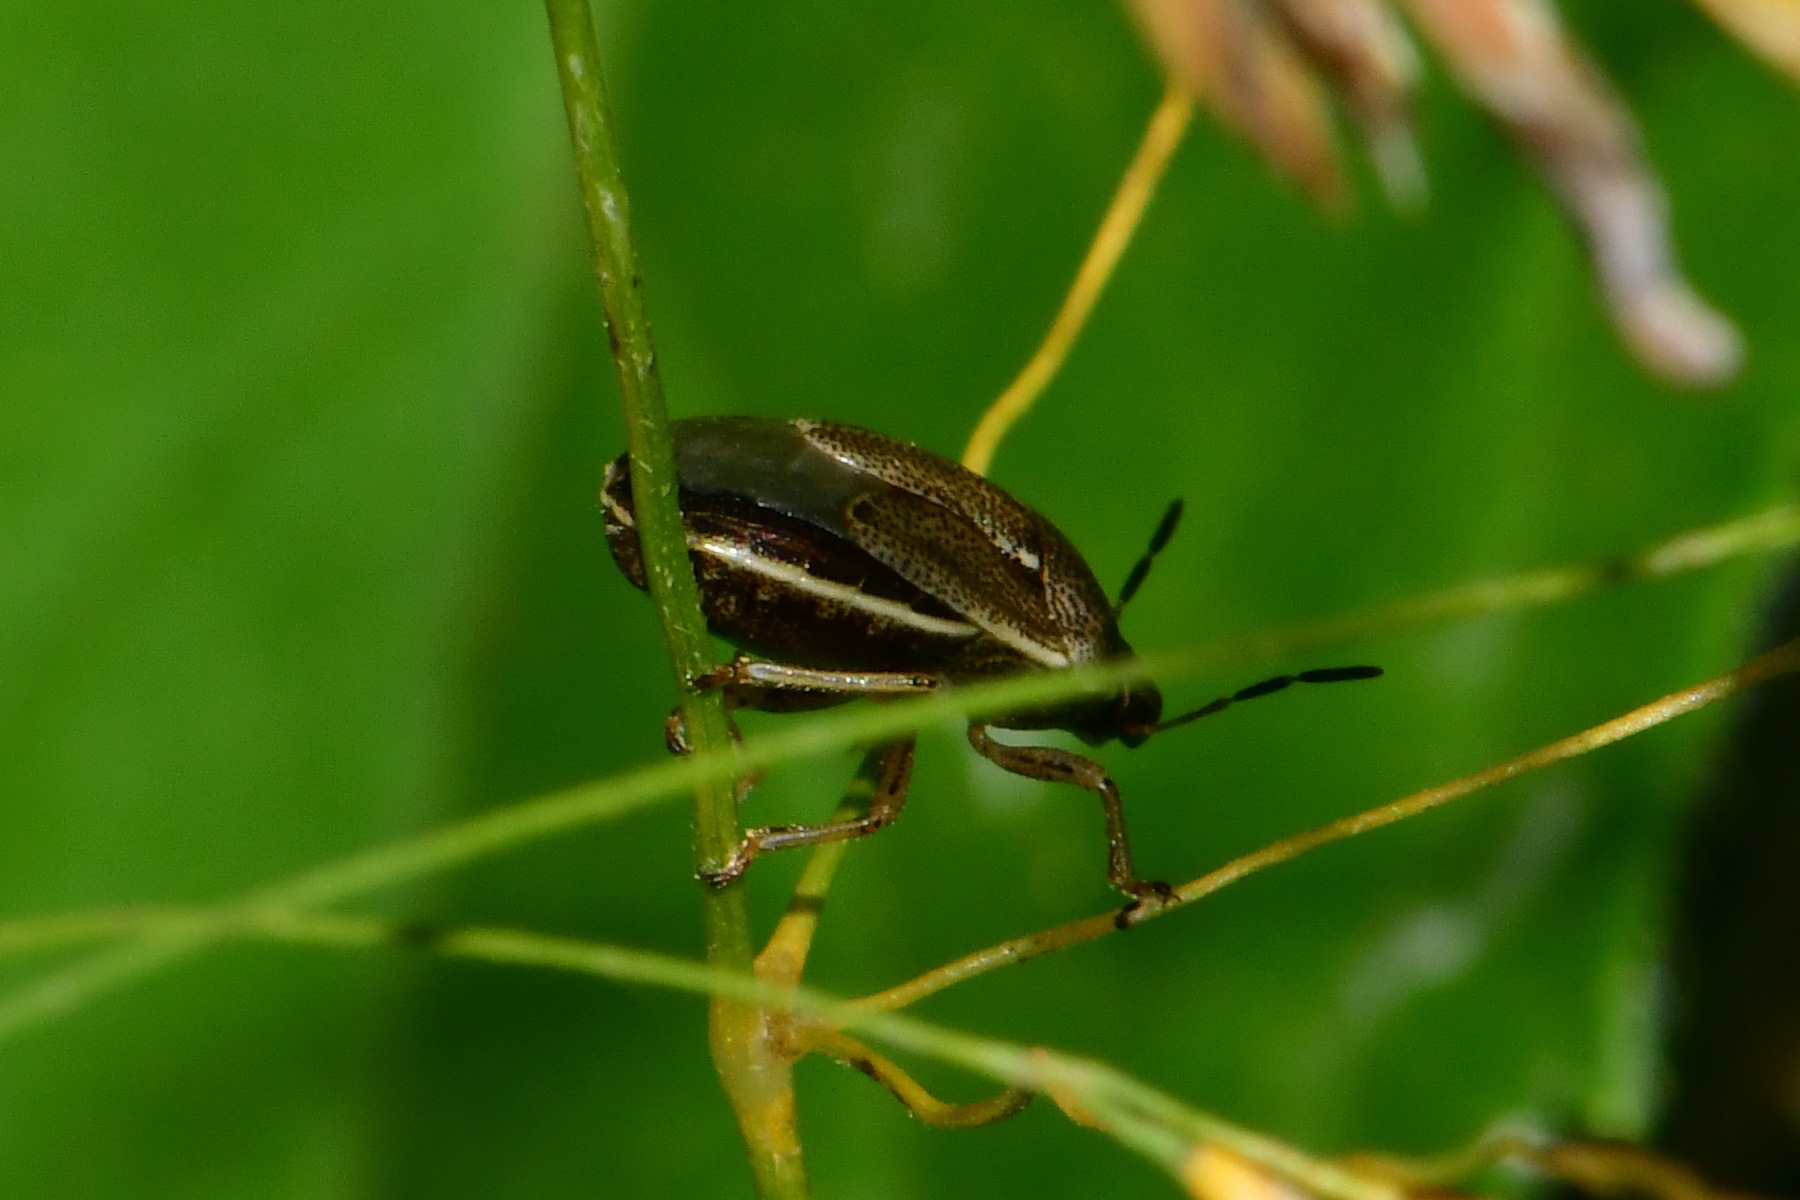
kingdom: Animalia
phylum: Arthropoda
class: Insecta
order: Hemiptera
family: Pentatomidae
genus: Neottiglossa
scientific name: Neottiglossa pusilla
